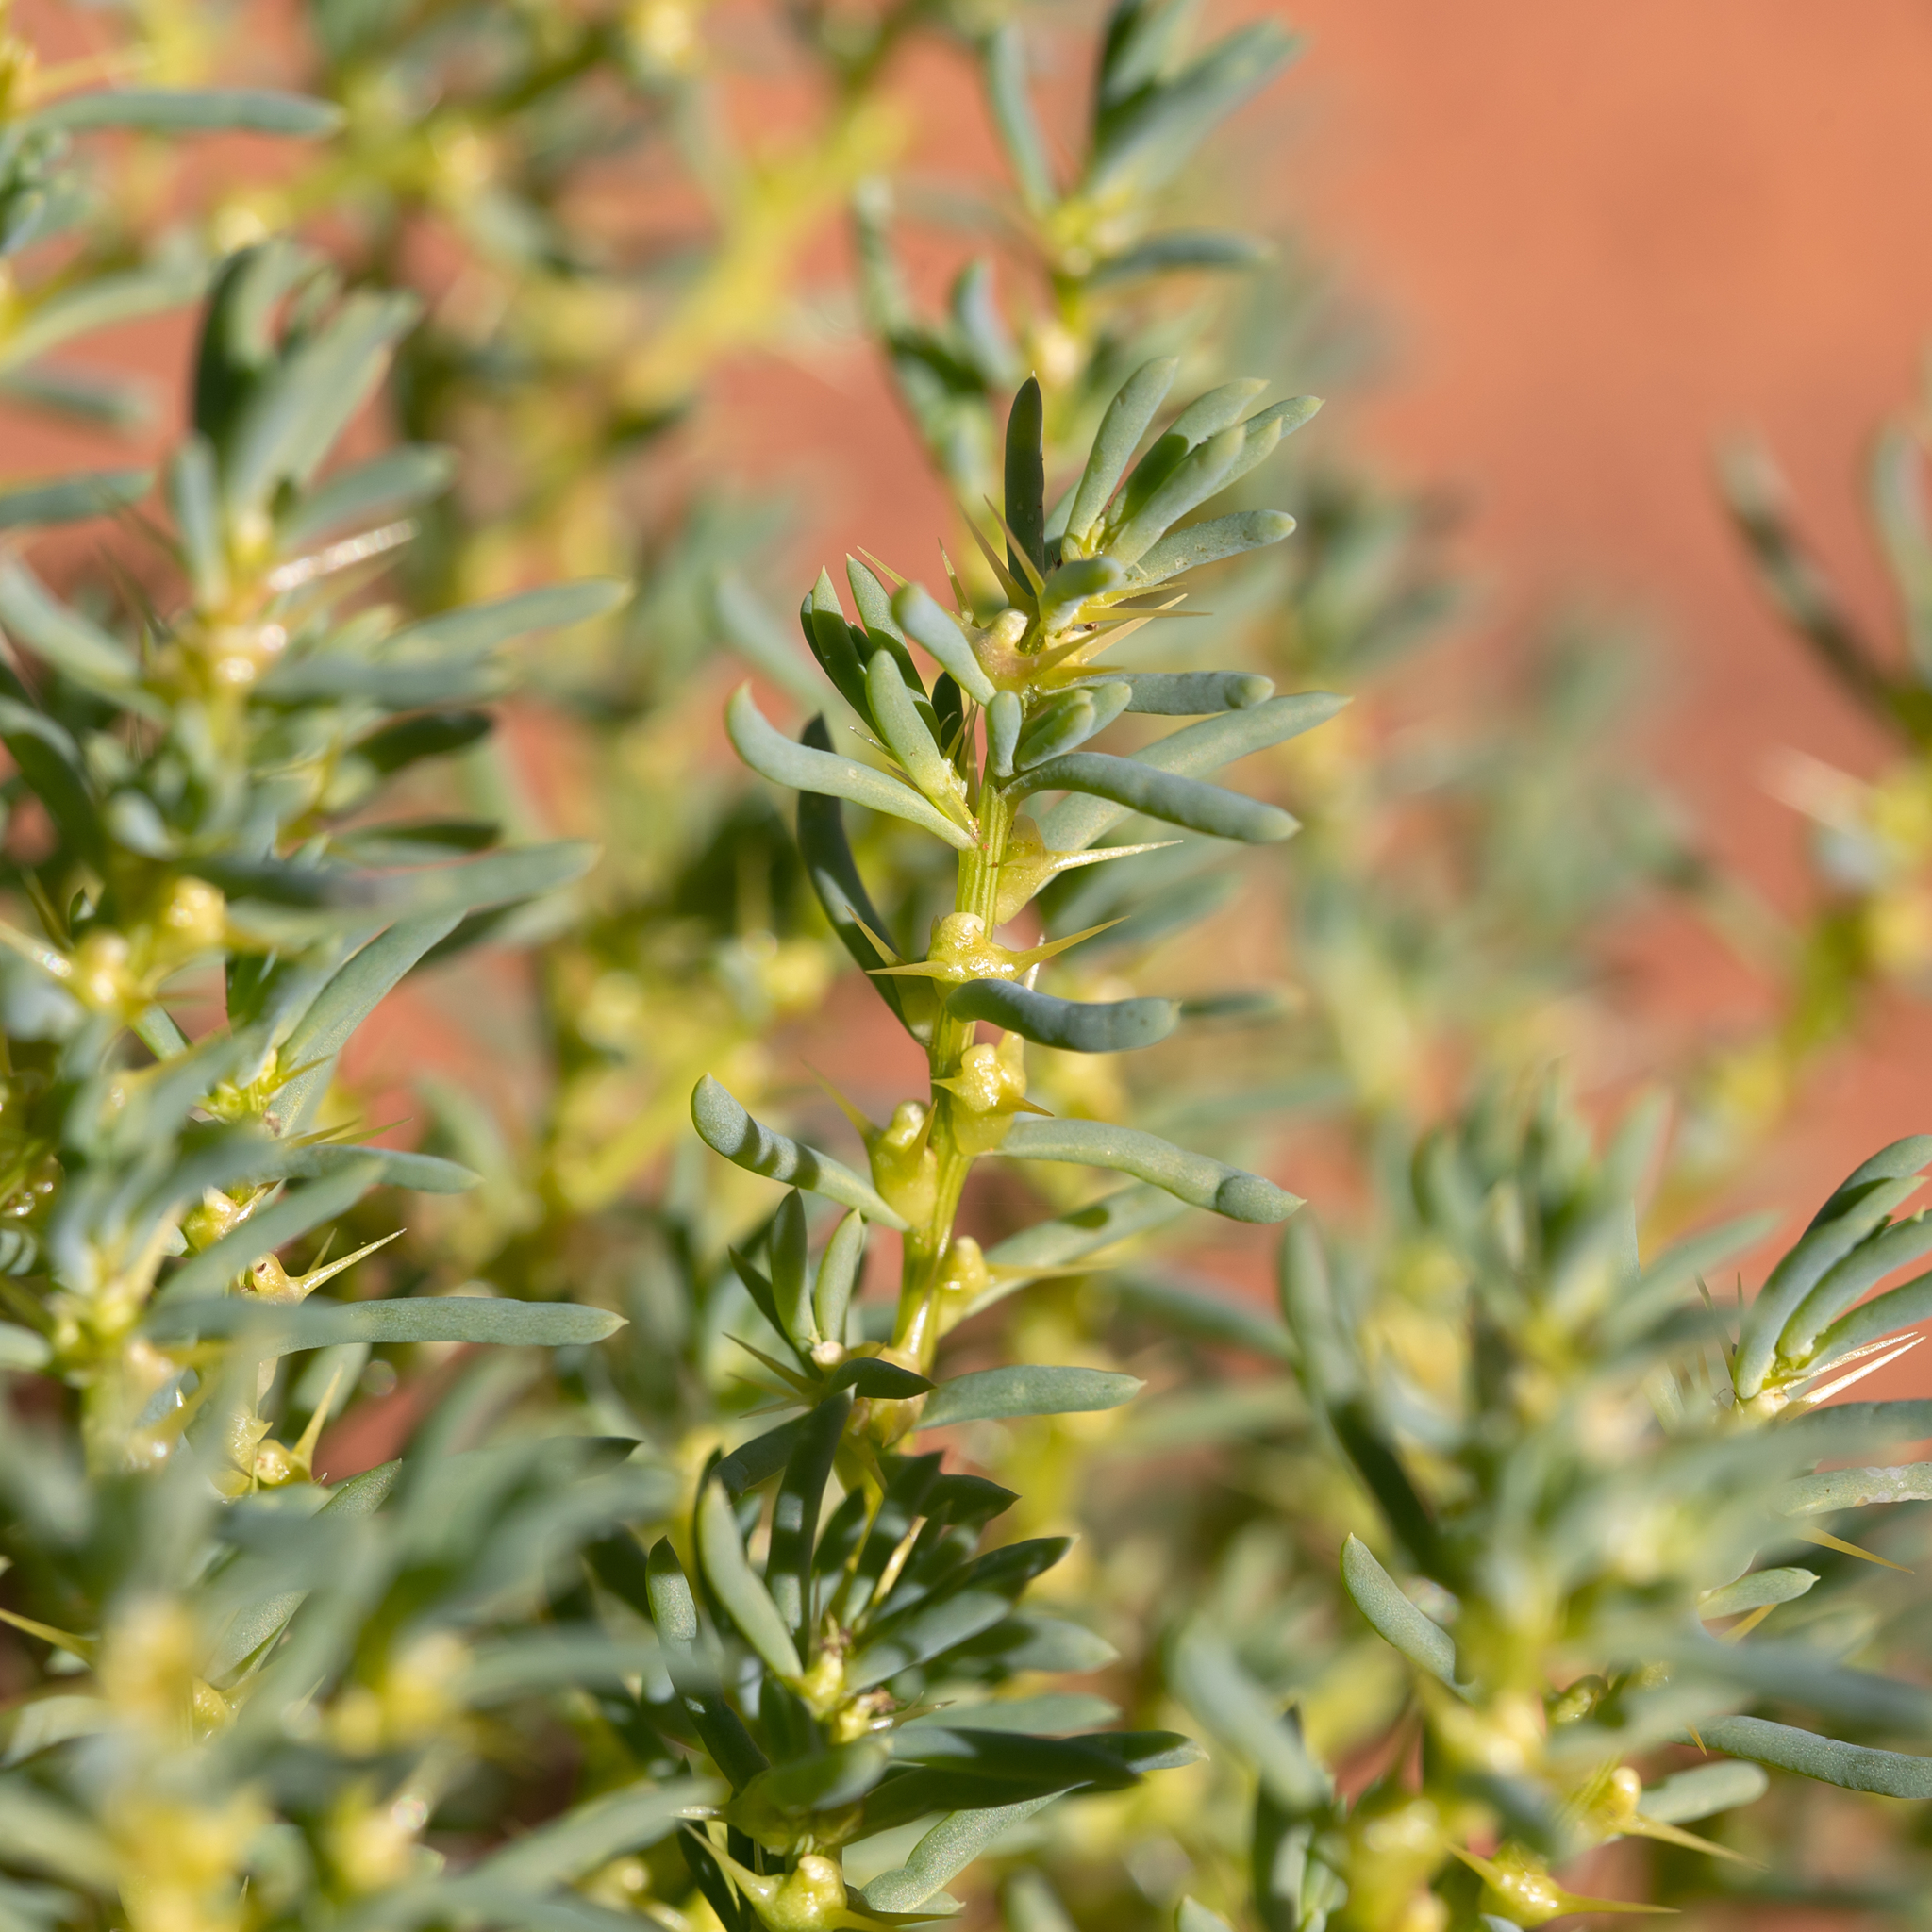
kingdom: Plantae
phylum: Tracheophyta
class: Magnoliopsida
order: Caryophyllales
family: Amaranthaceae
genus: Sclerolaena
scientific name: Sclerolaena glabra
